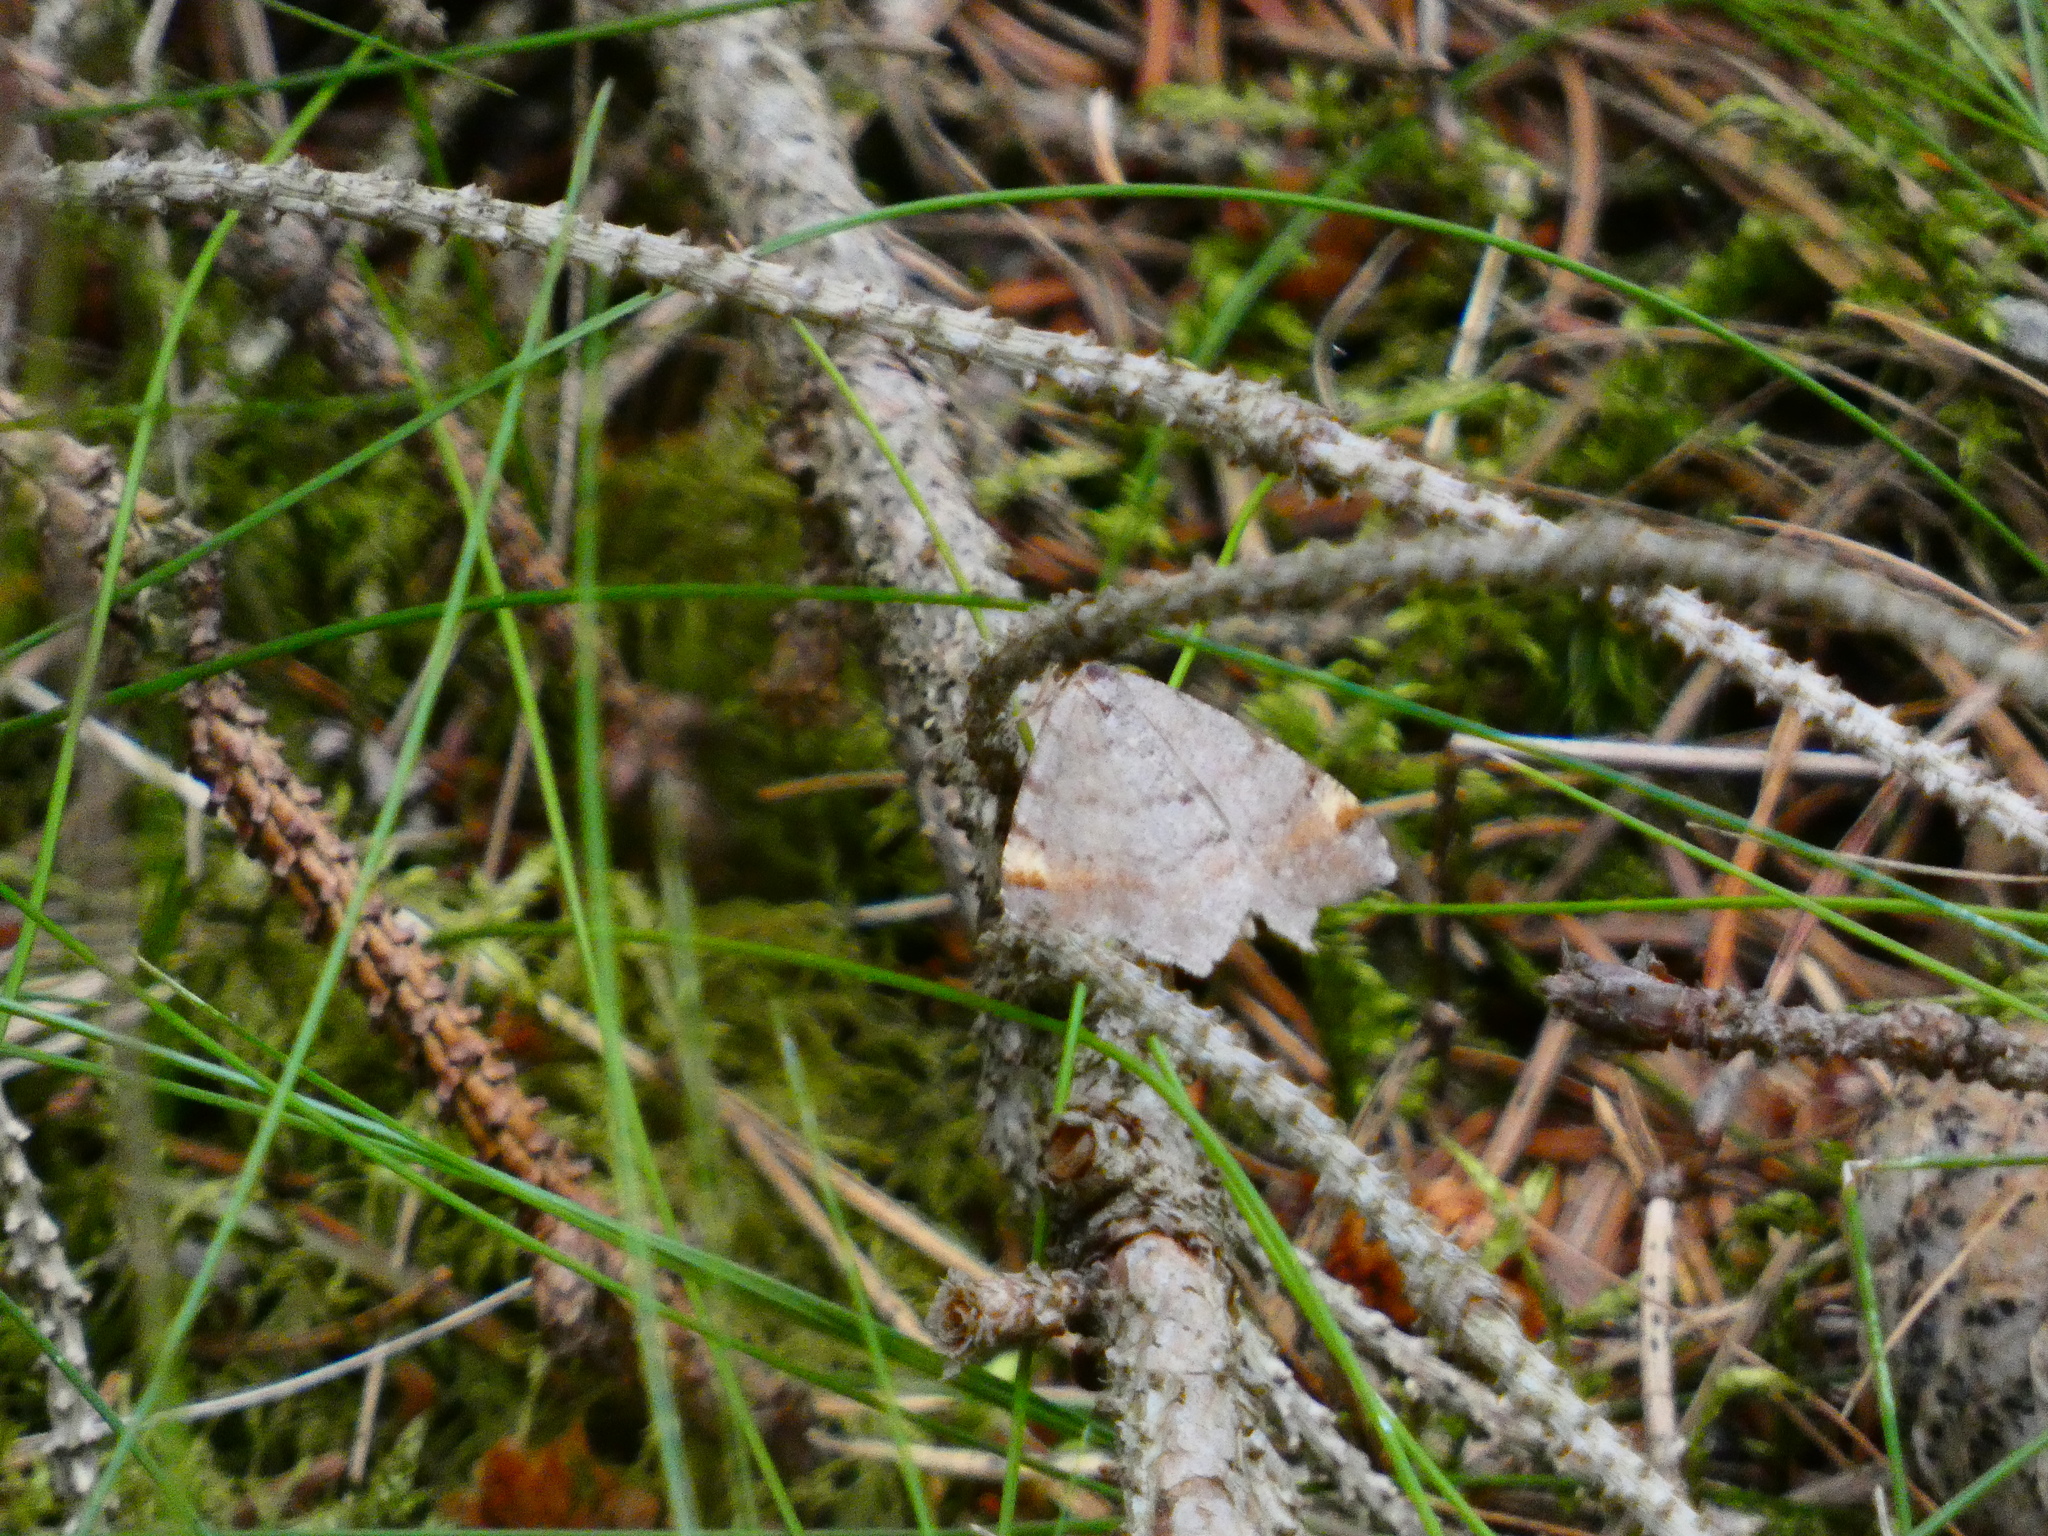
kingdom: Animalia
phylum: Arthropoda
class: Insecta
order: Lepidoptera
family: Geometridae
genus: Macaria
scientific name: Macaria liturata
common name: Tawny-barred angle
